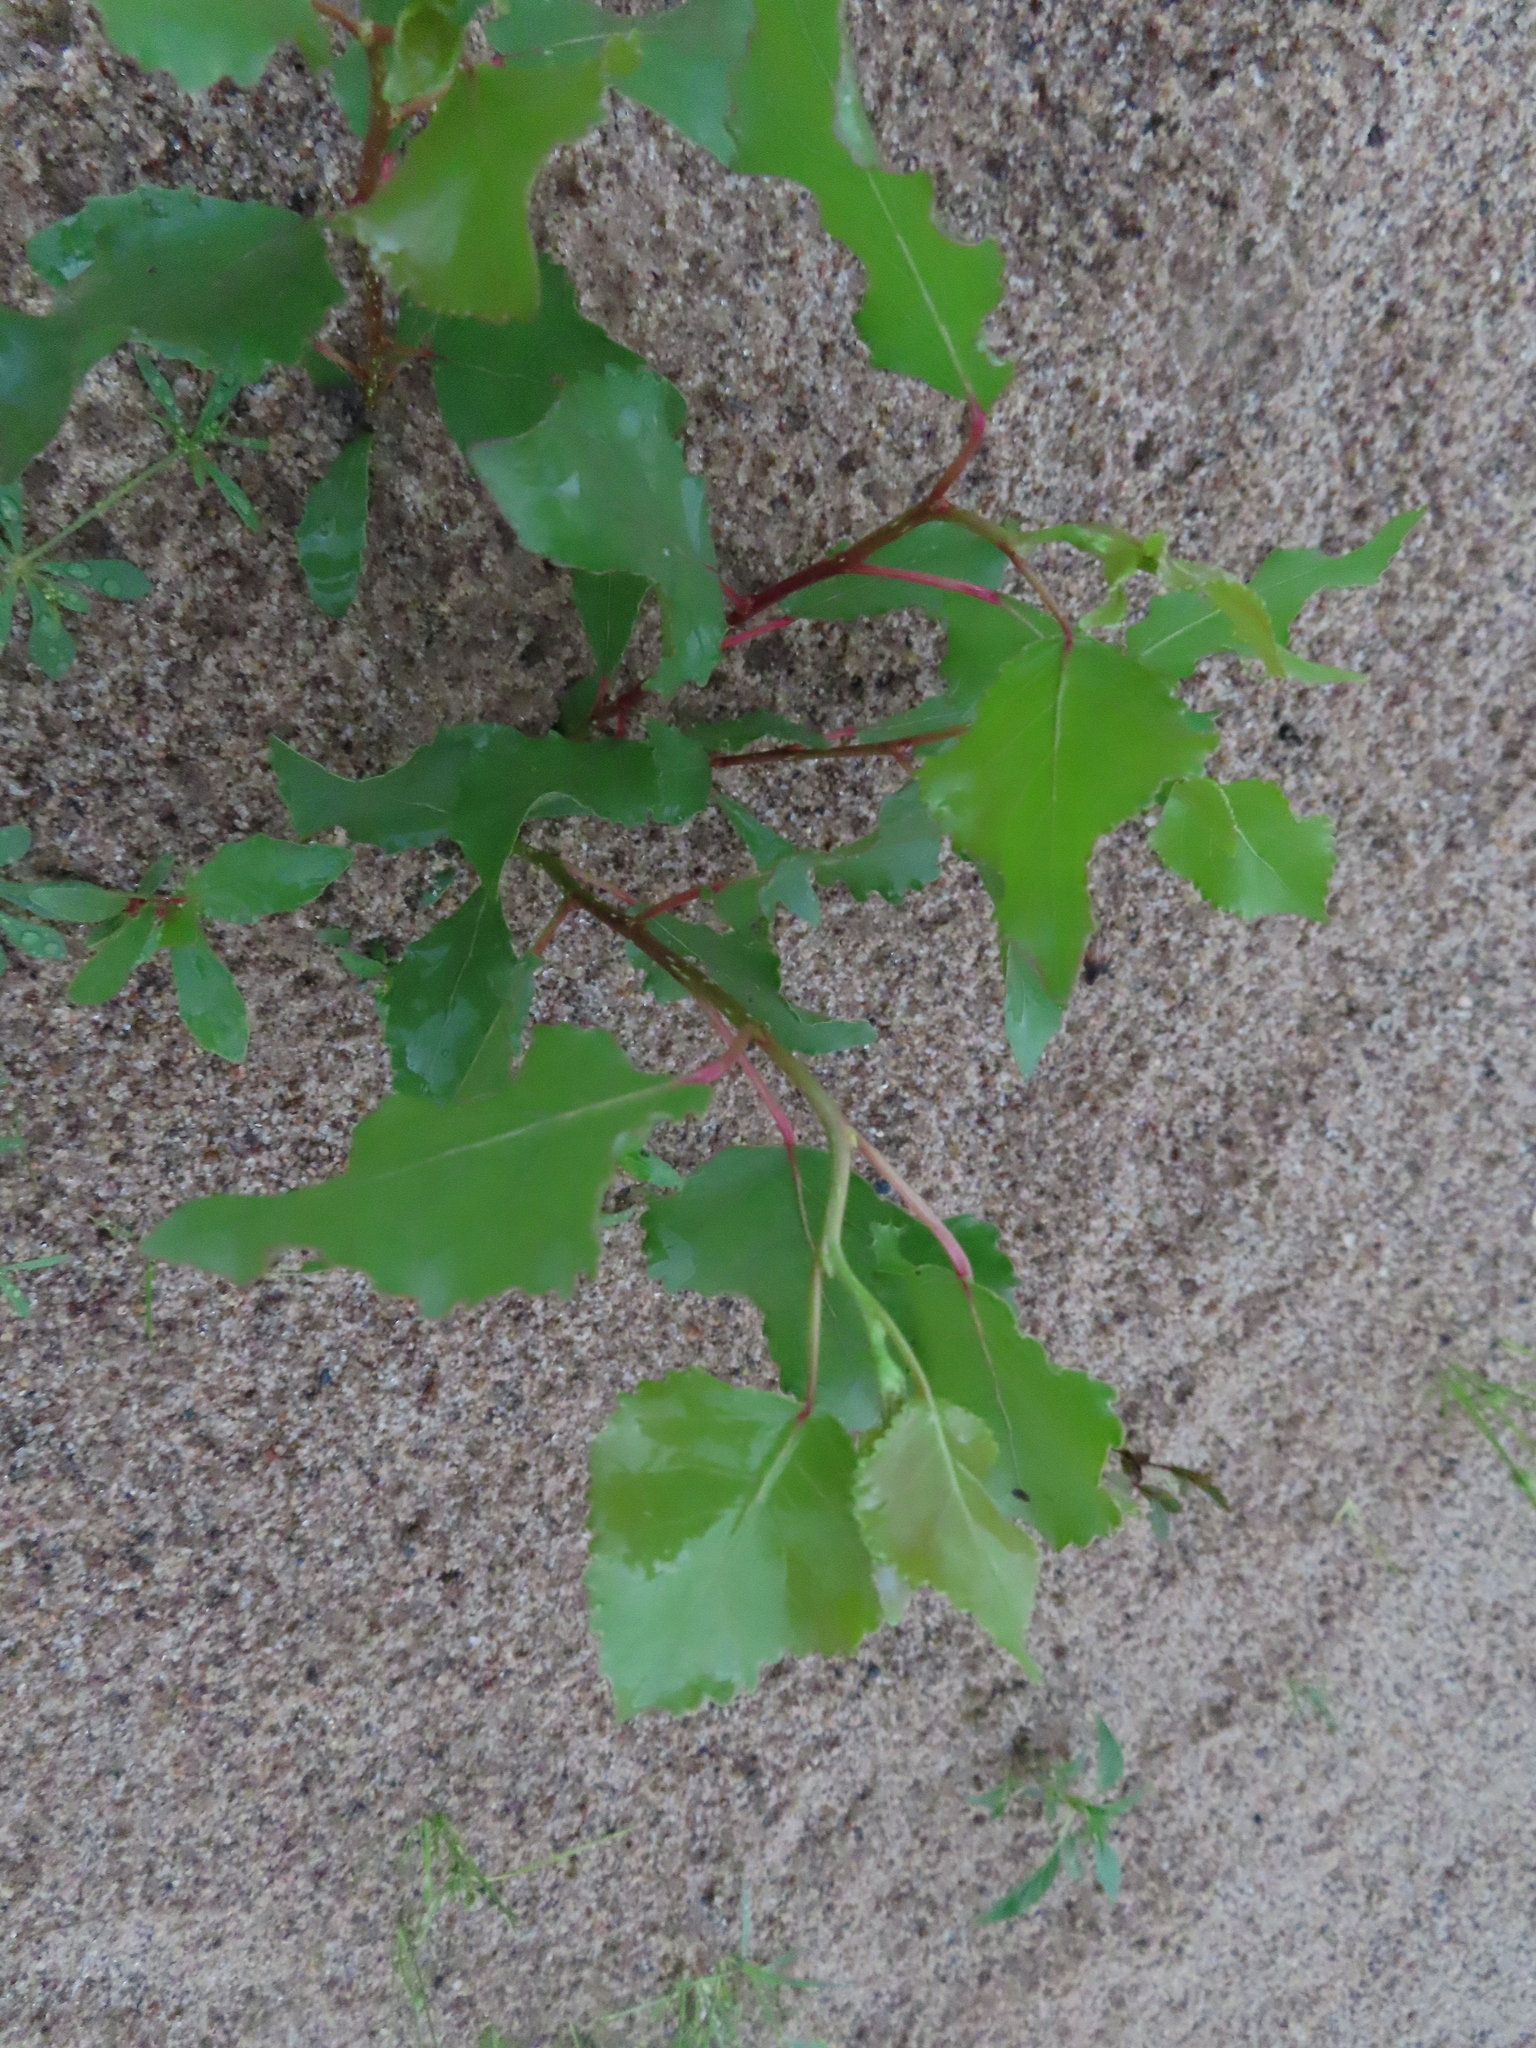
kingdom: Plantae
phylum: Tracheophyta
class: Magnoliopsida
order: Malpighiales
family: Salicaceae
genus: Populus
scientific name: Populus deltoides
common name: Eastern cottonwood
